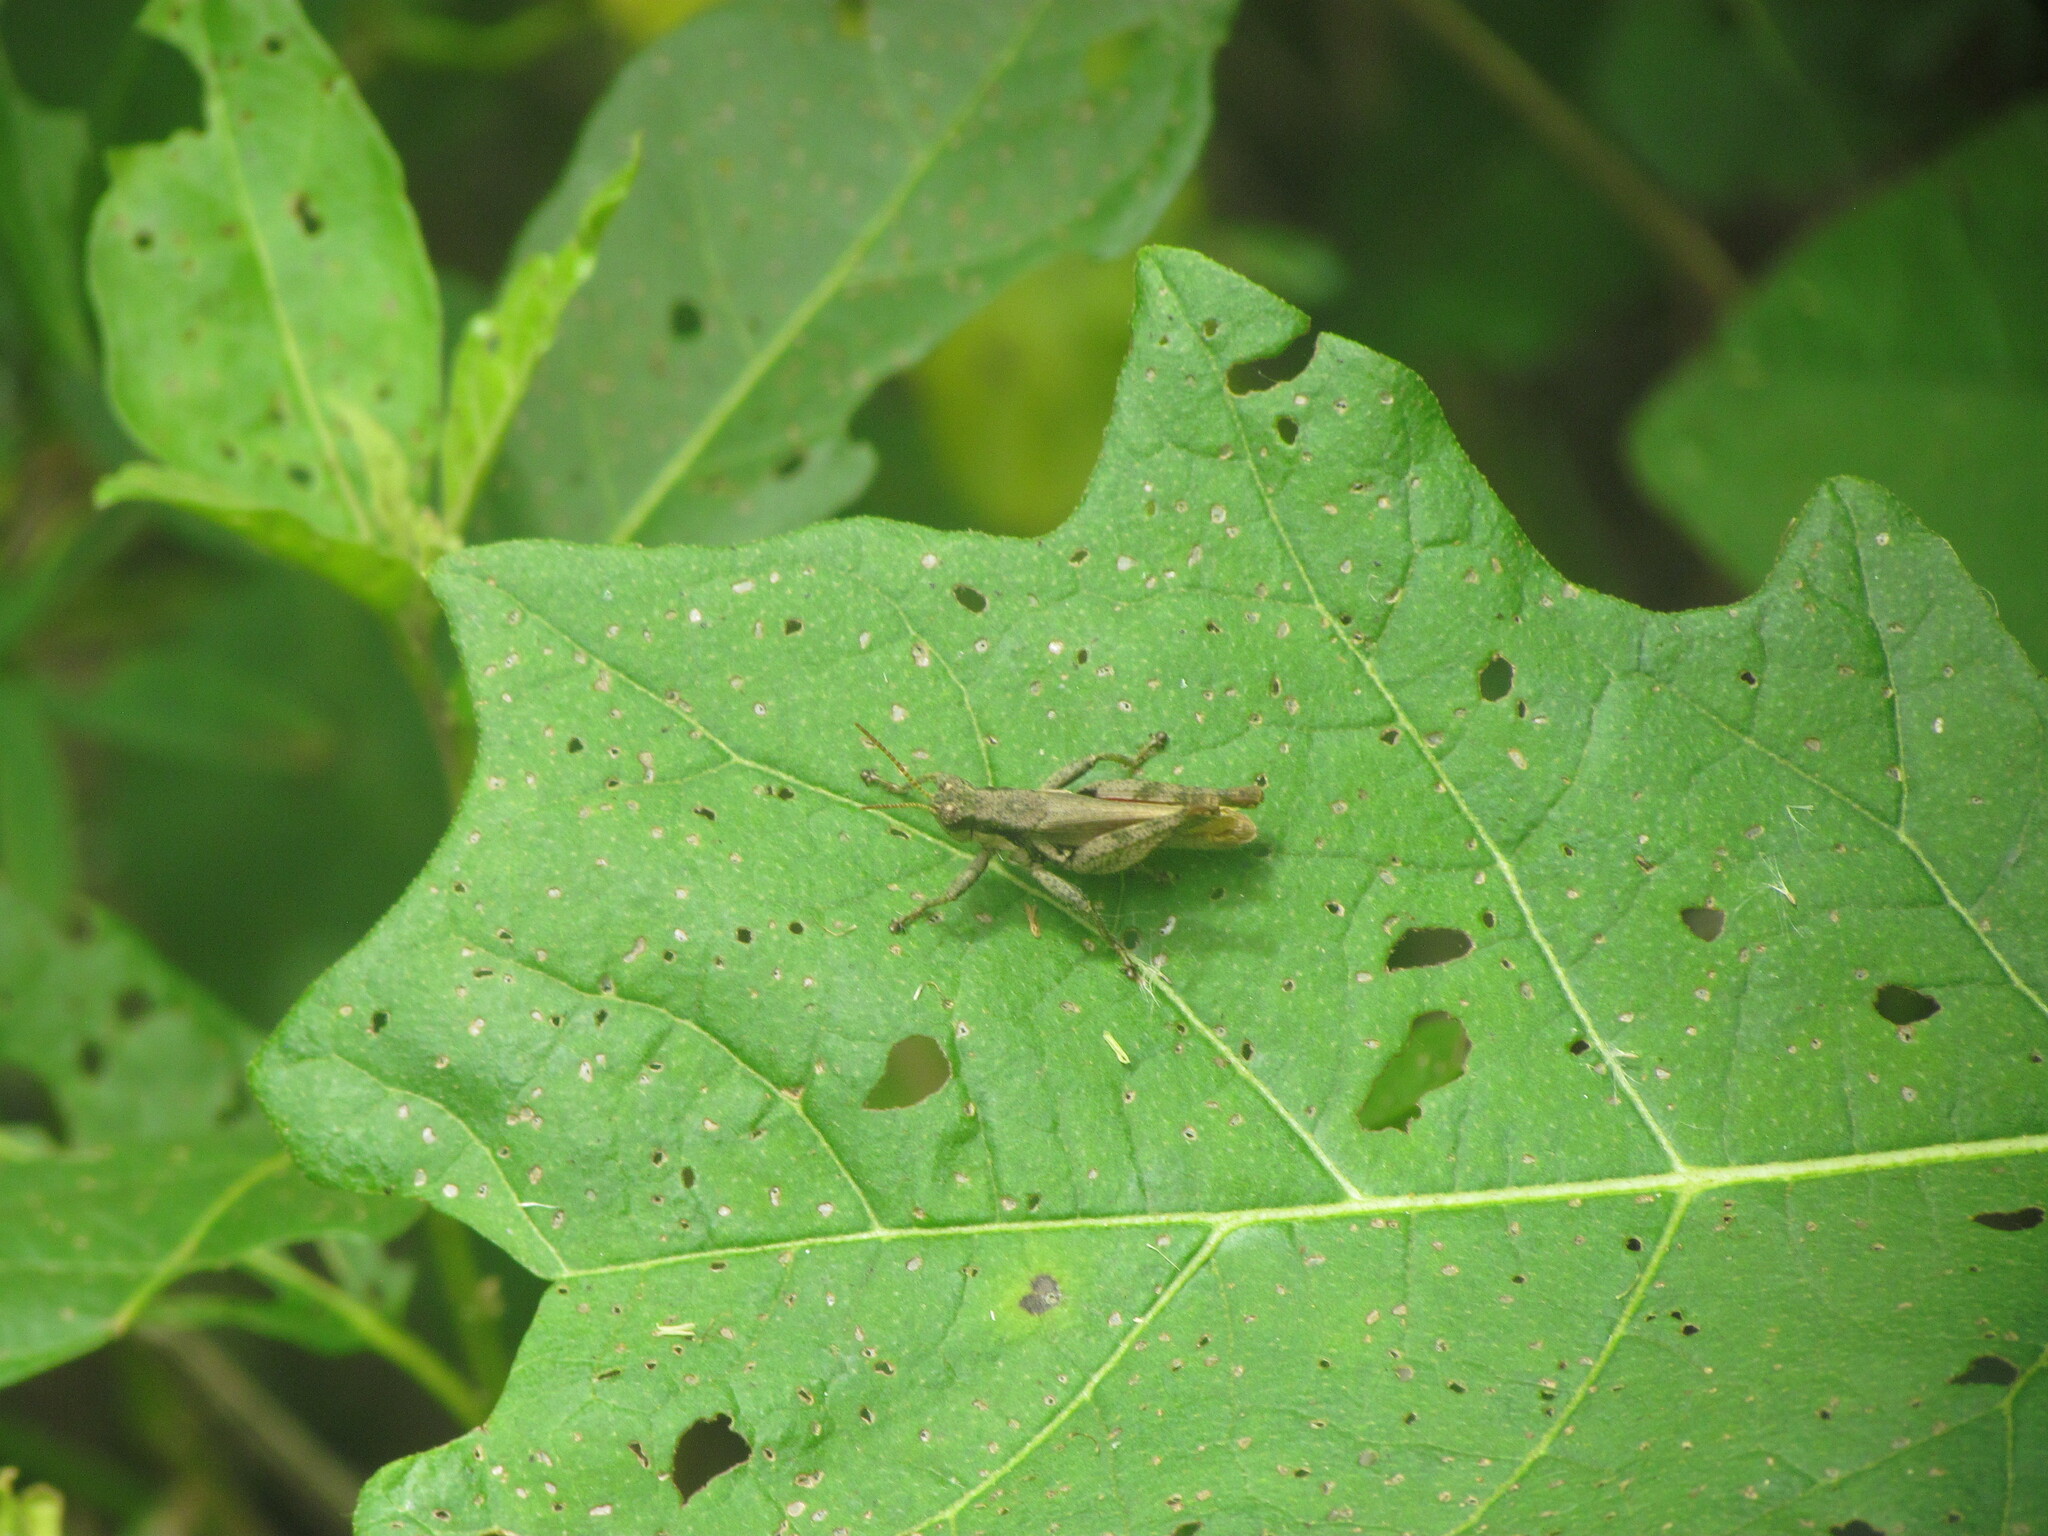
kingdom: Animalia
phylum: Arthropoda
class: Insecta
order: Orthoptera
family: Acrididae
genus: Ronderosia
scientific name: Ronderosia bergii
